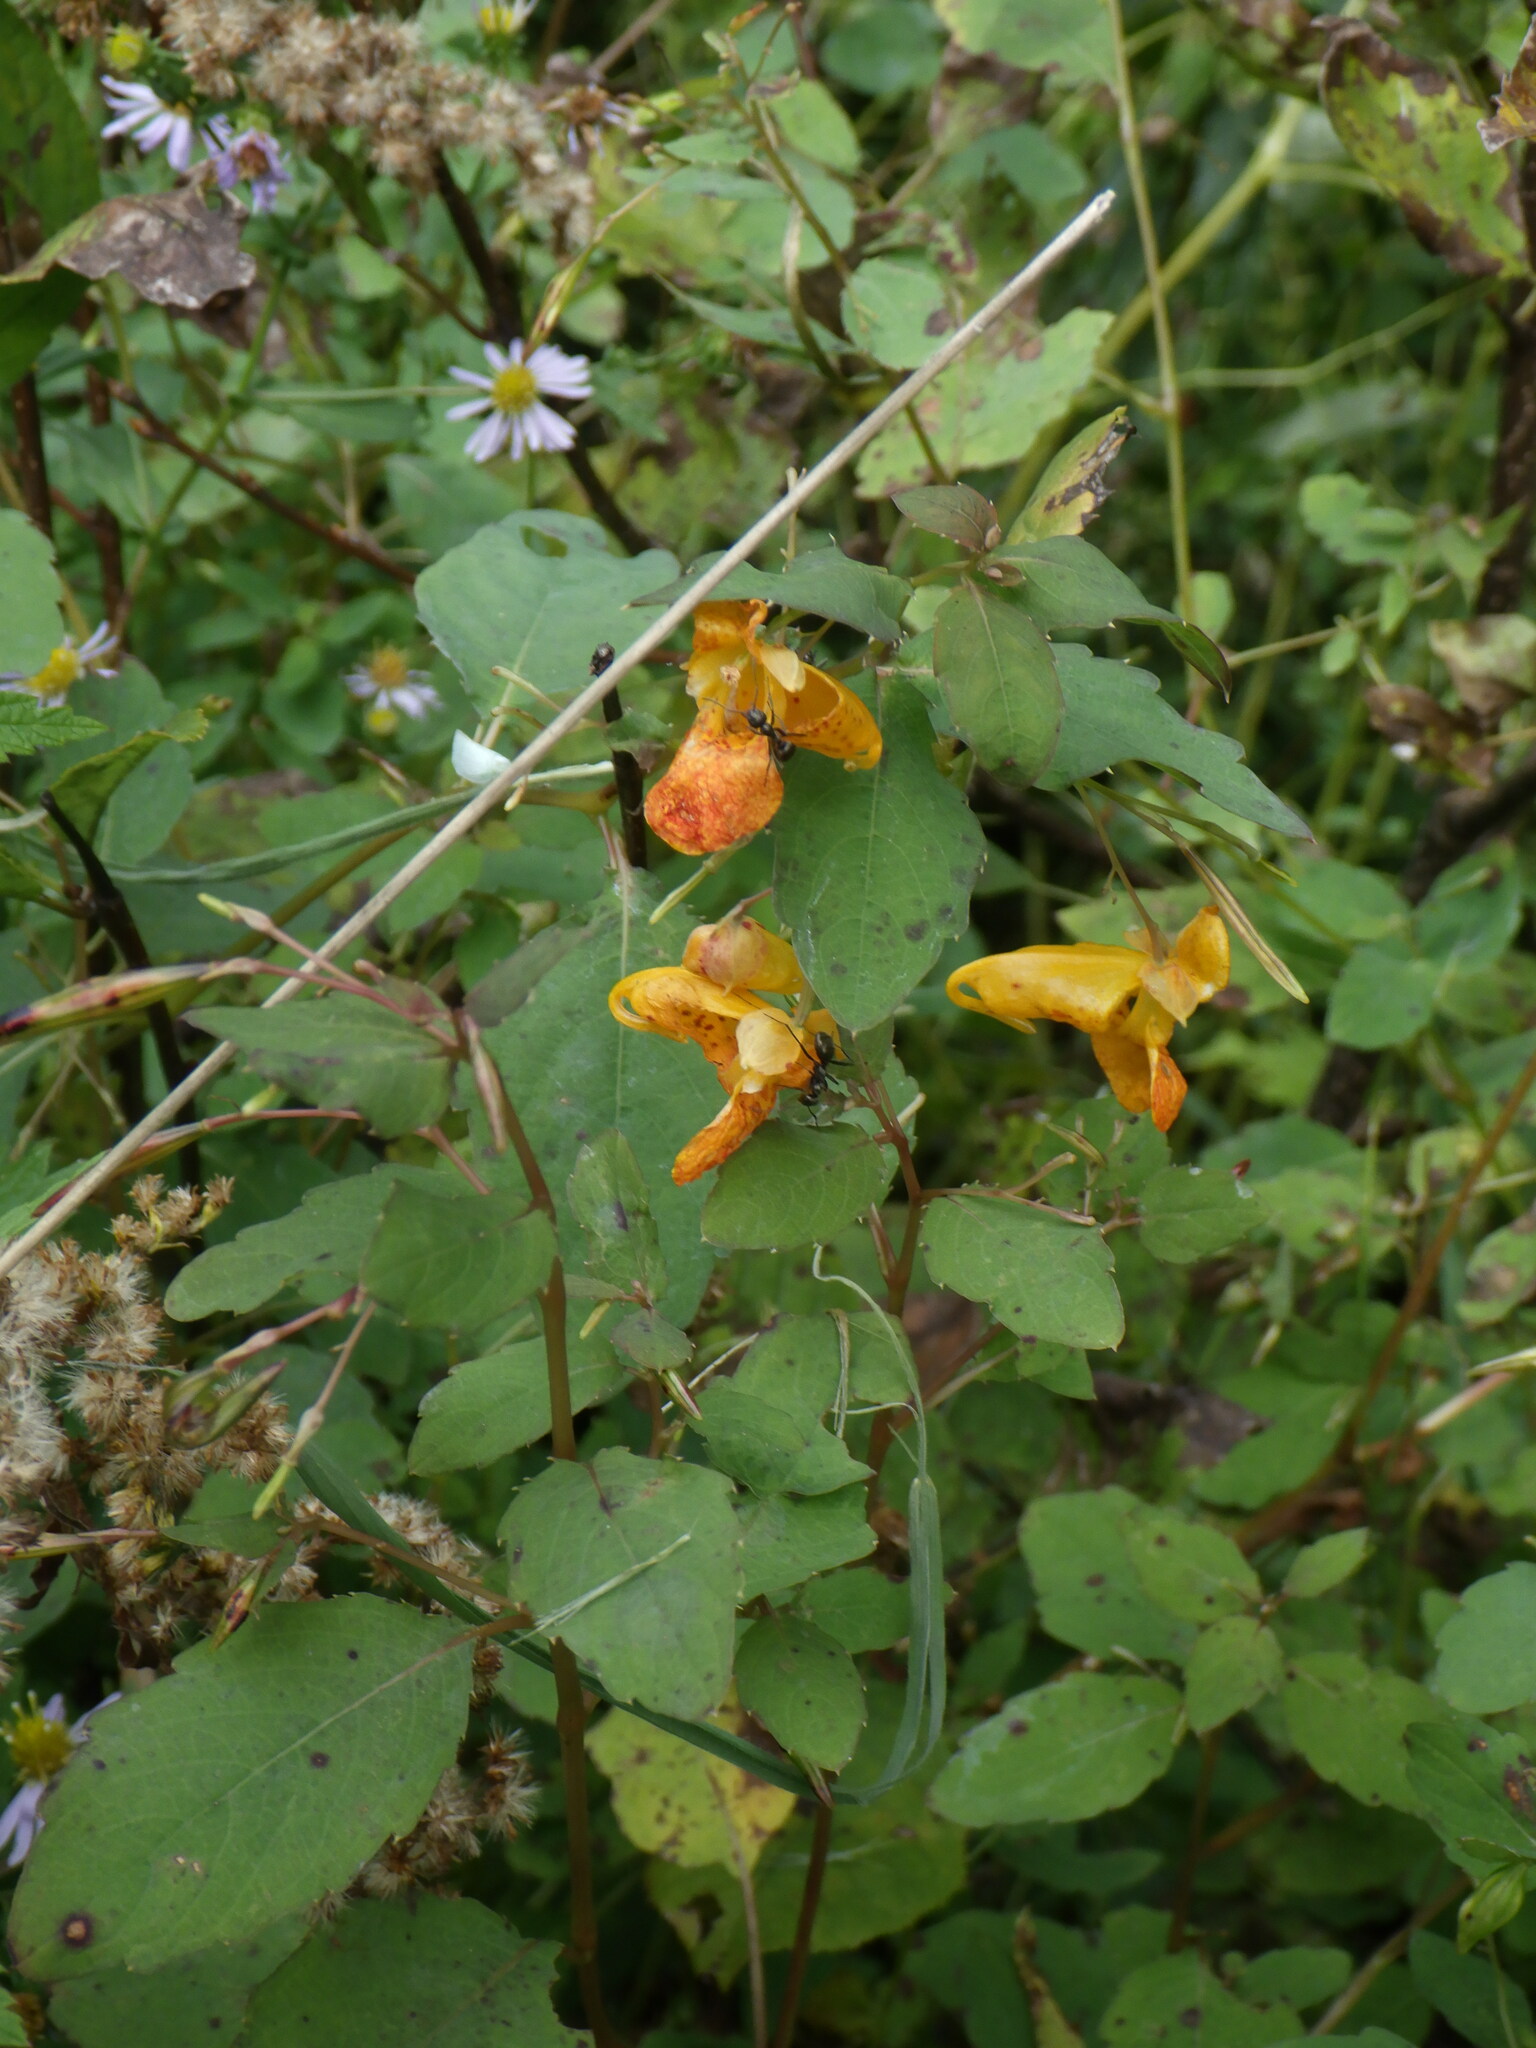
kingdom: Plantae
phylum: Tracheophyta
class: Magnoliopsida
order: Ericales
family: Balsaminaceae
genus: Impatiens
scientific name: Impatiens capensis
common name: Orange balsam
